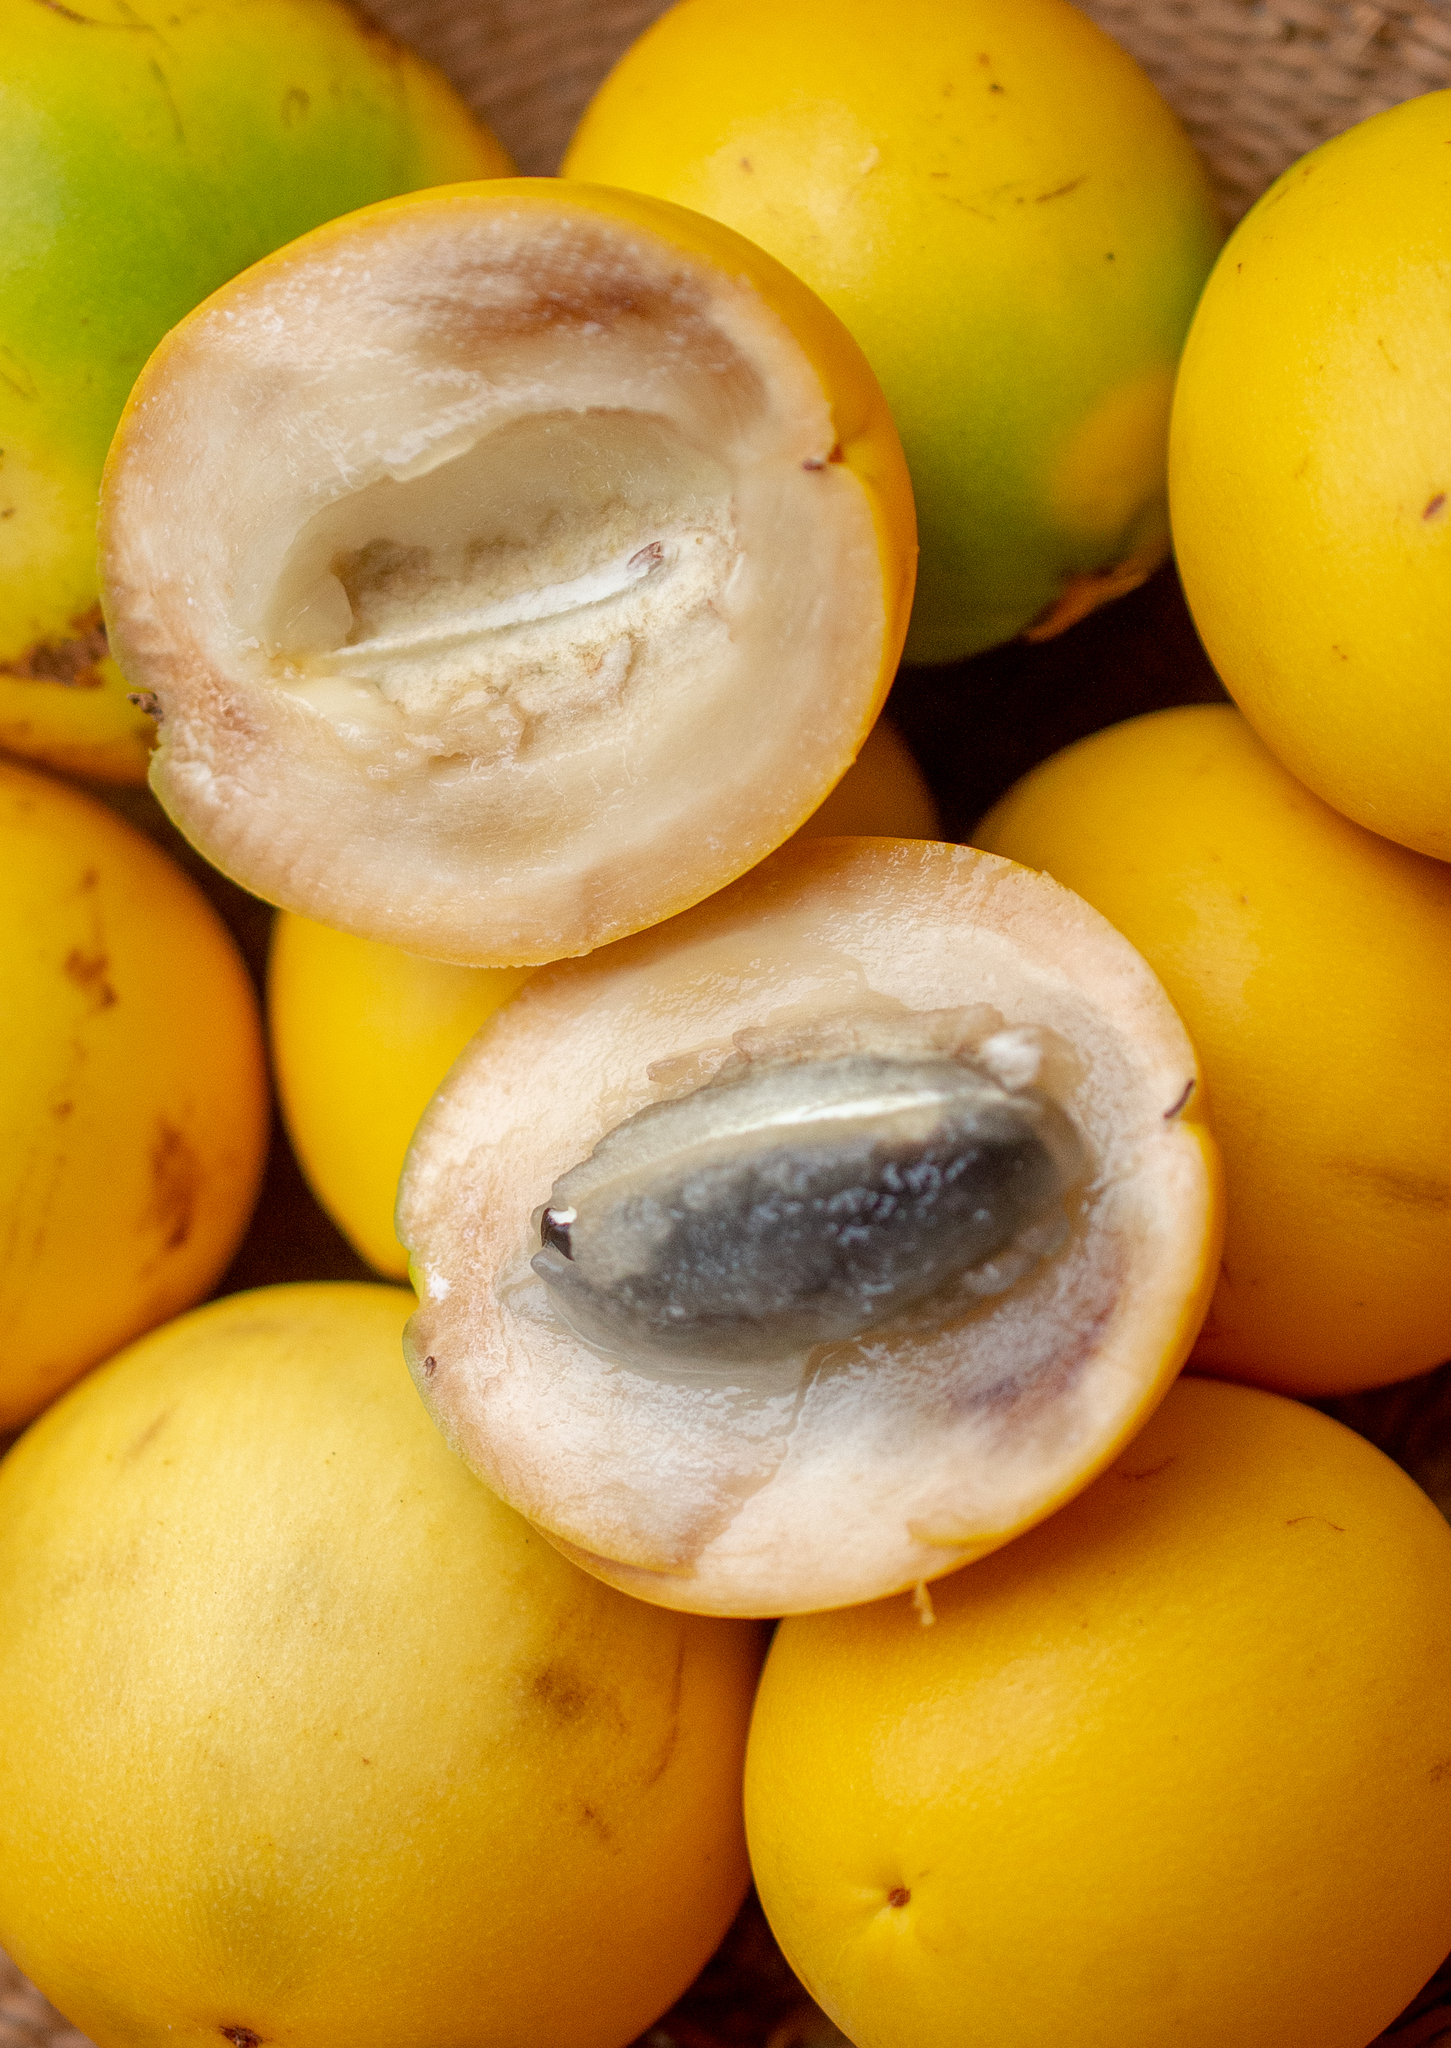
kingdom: Plantae
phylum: Tracheophyta
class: Magnoliopsida
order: Ericales
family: Sapotaceae
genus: Pouteria
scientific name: Pouteria caimito
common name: Caimito
